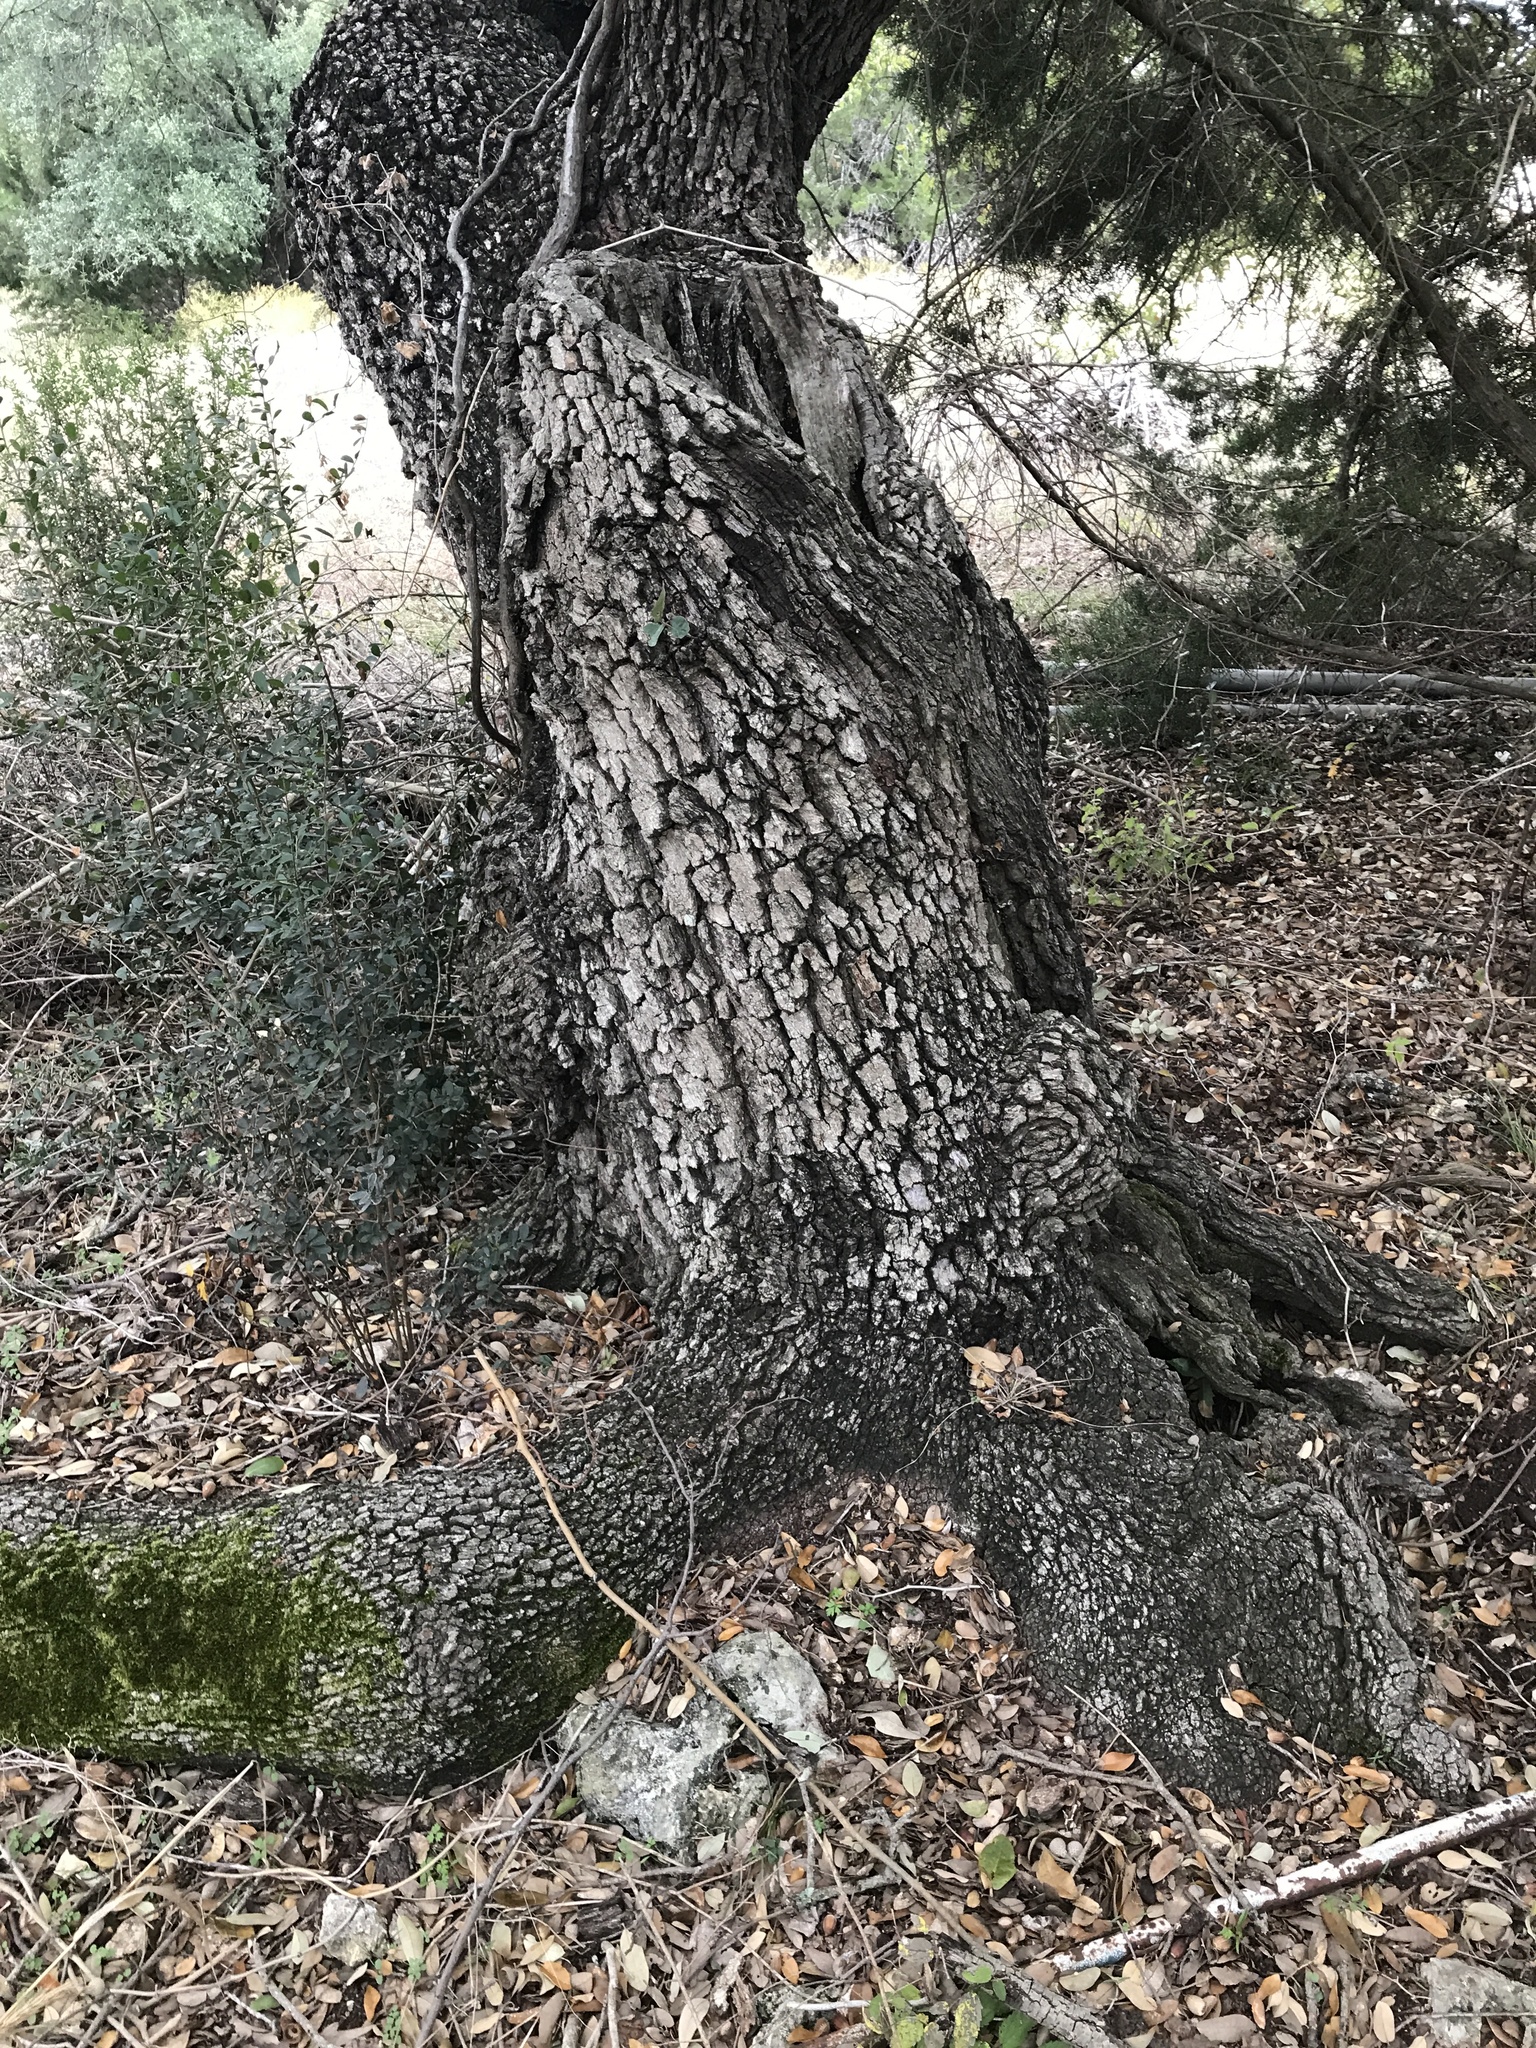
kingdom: Plantae
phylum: Tracheophyta
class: Magnoliopsida
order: Fagales
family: Fagaceae
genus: Quercus
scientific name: Quercus fusiformis
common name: Texas live oak
